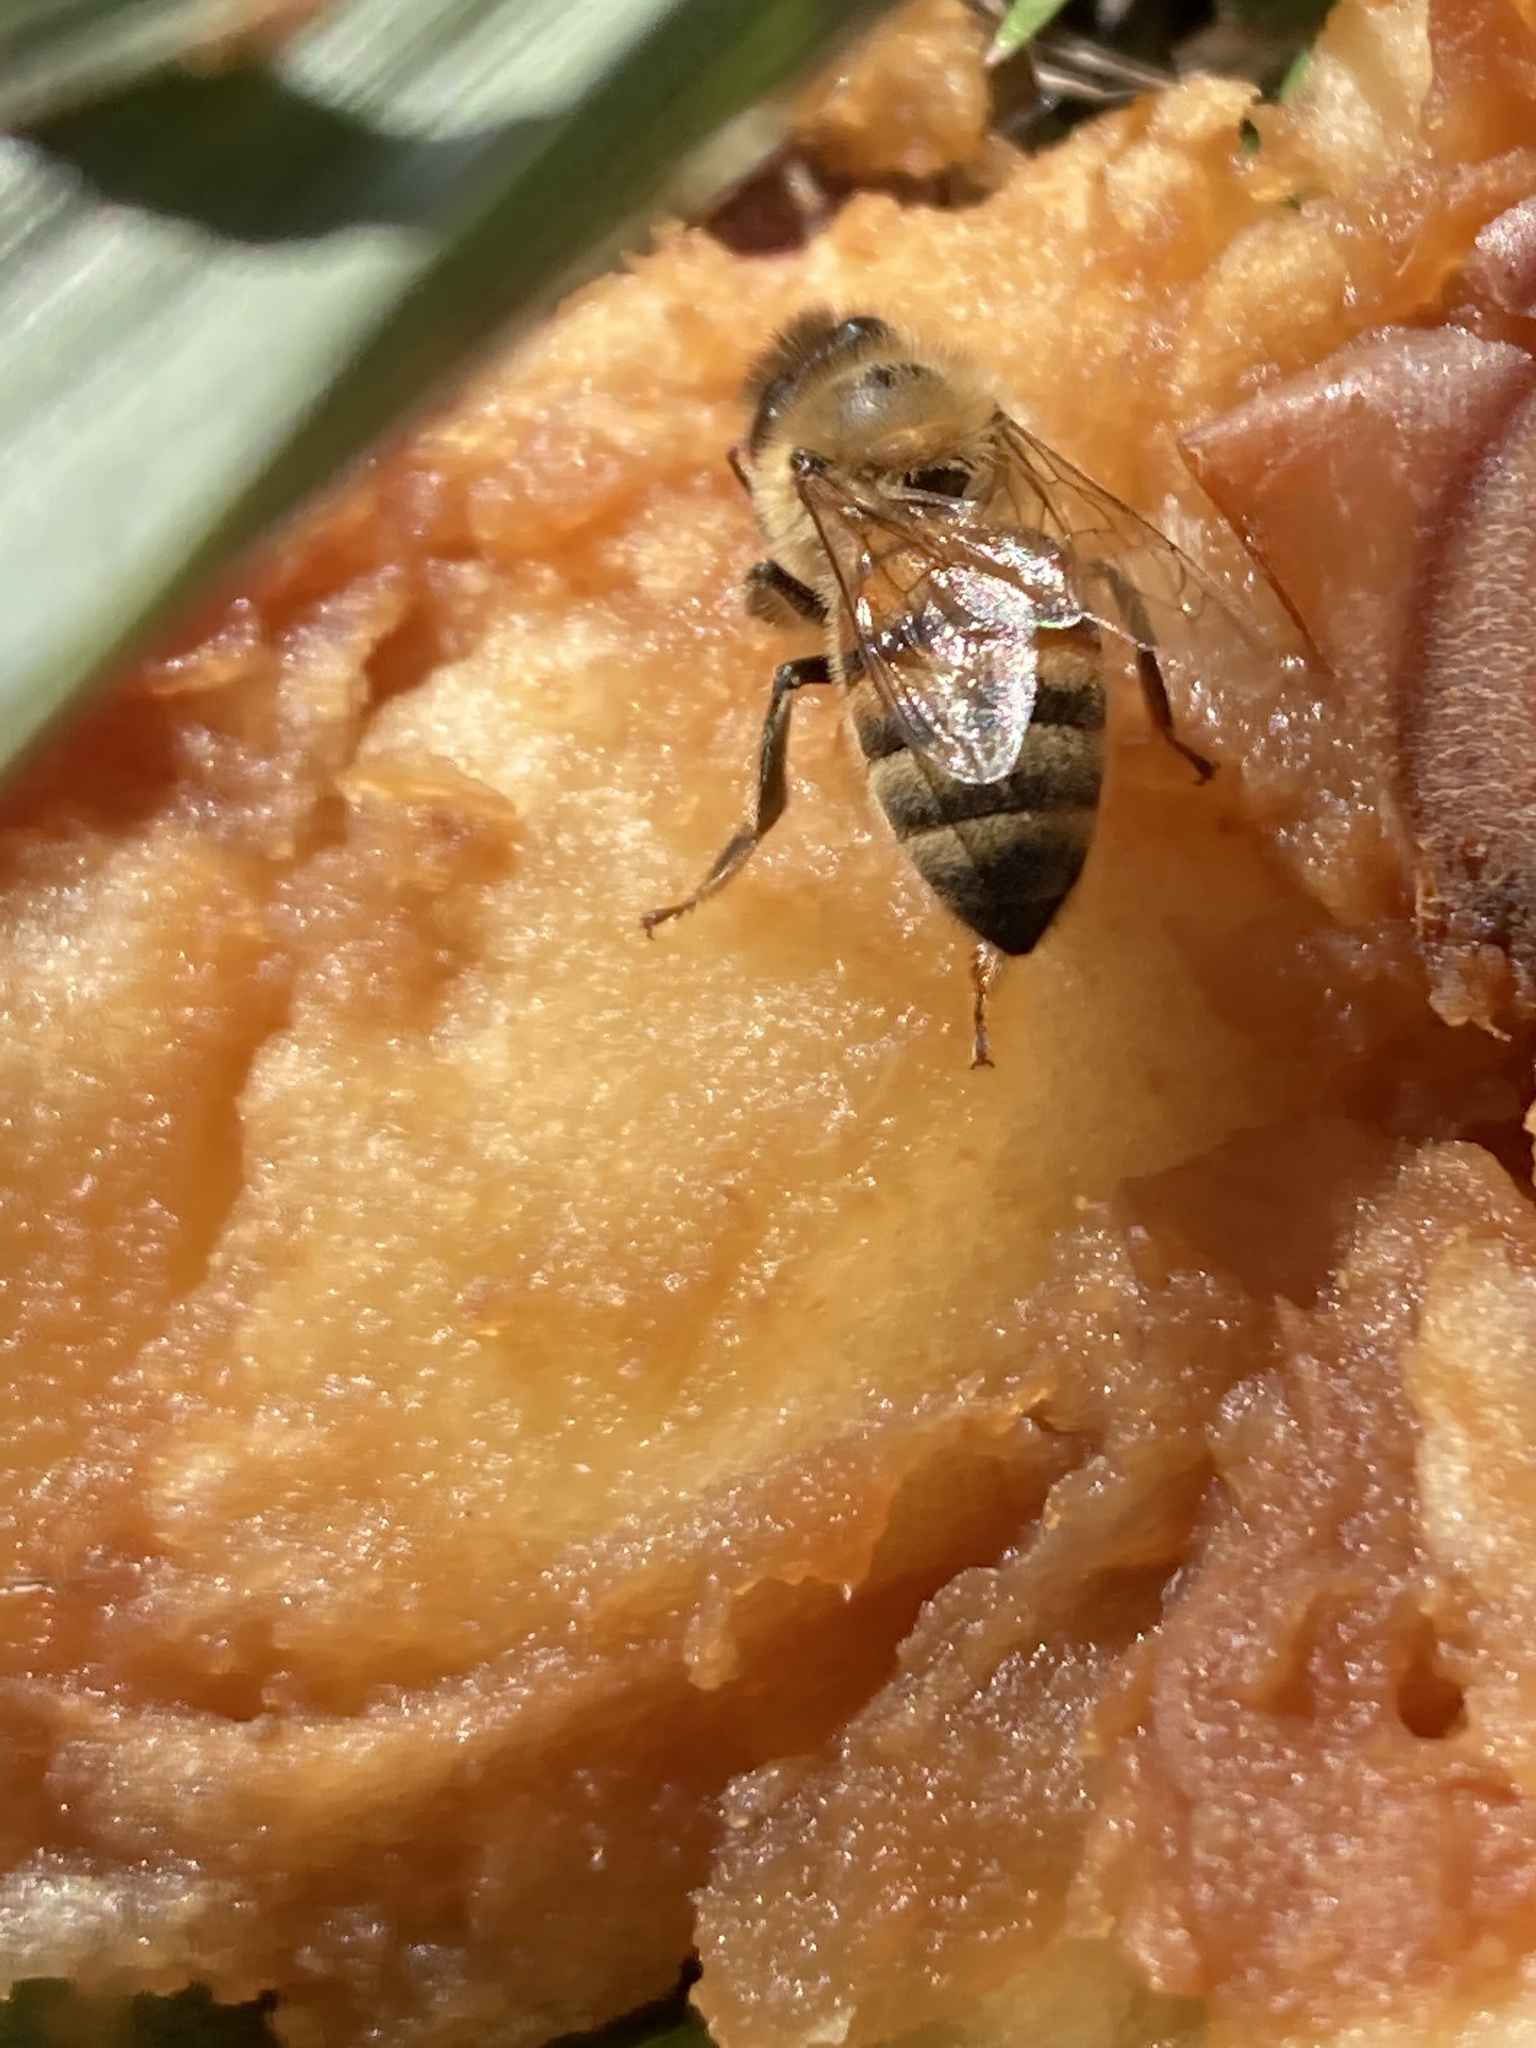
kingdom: Animalia
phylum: Arthropoda
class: Insecta
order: Hymenoptera
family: Apidae
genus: Apis
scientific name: Apis mellifera
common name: Honey bee
